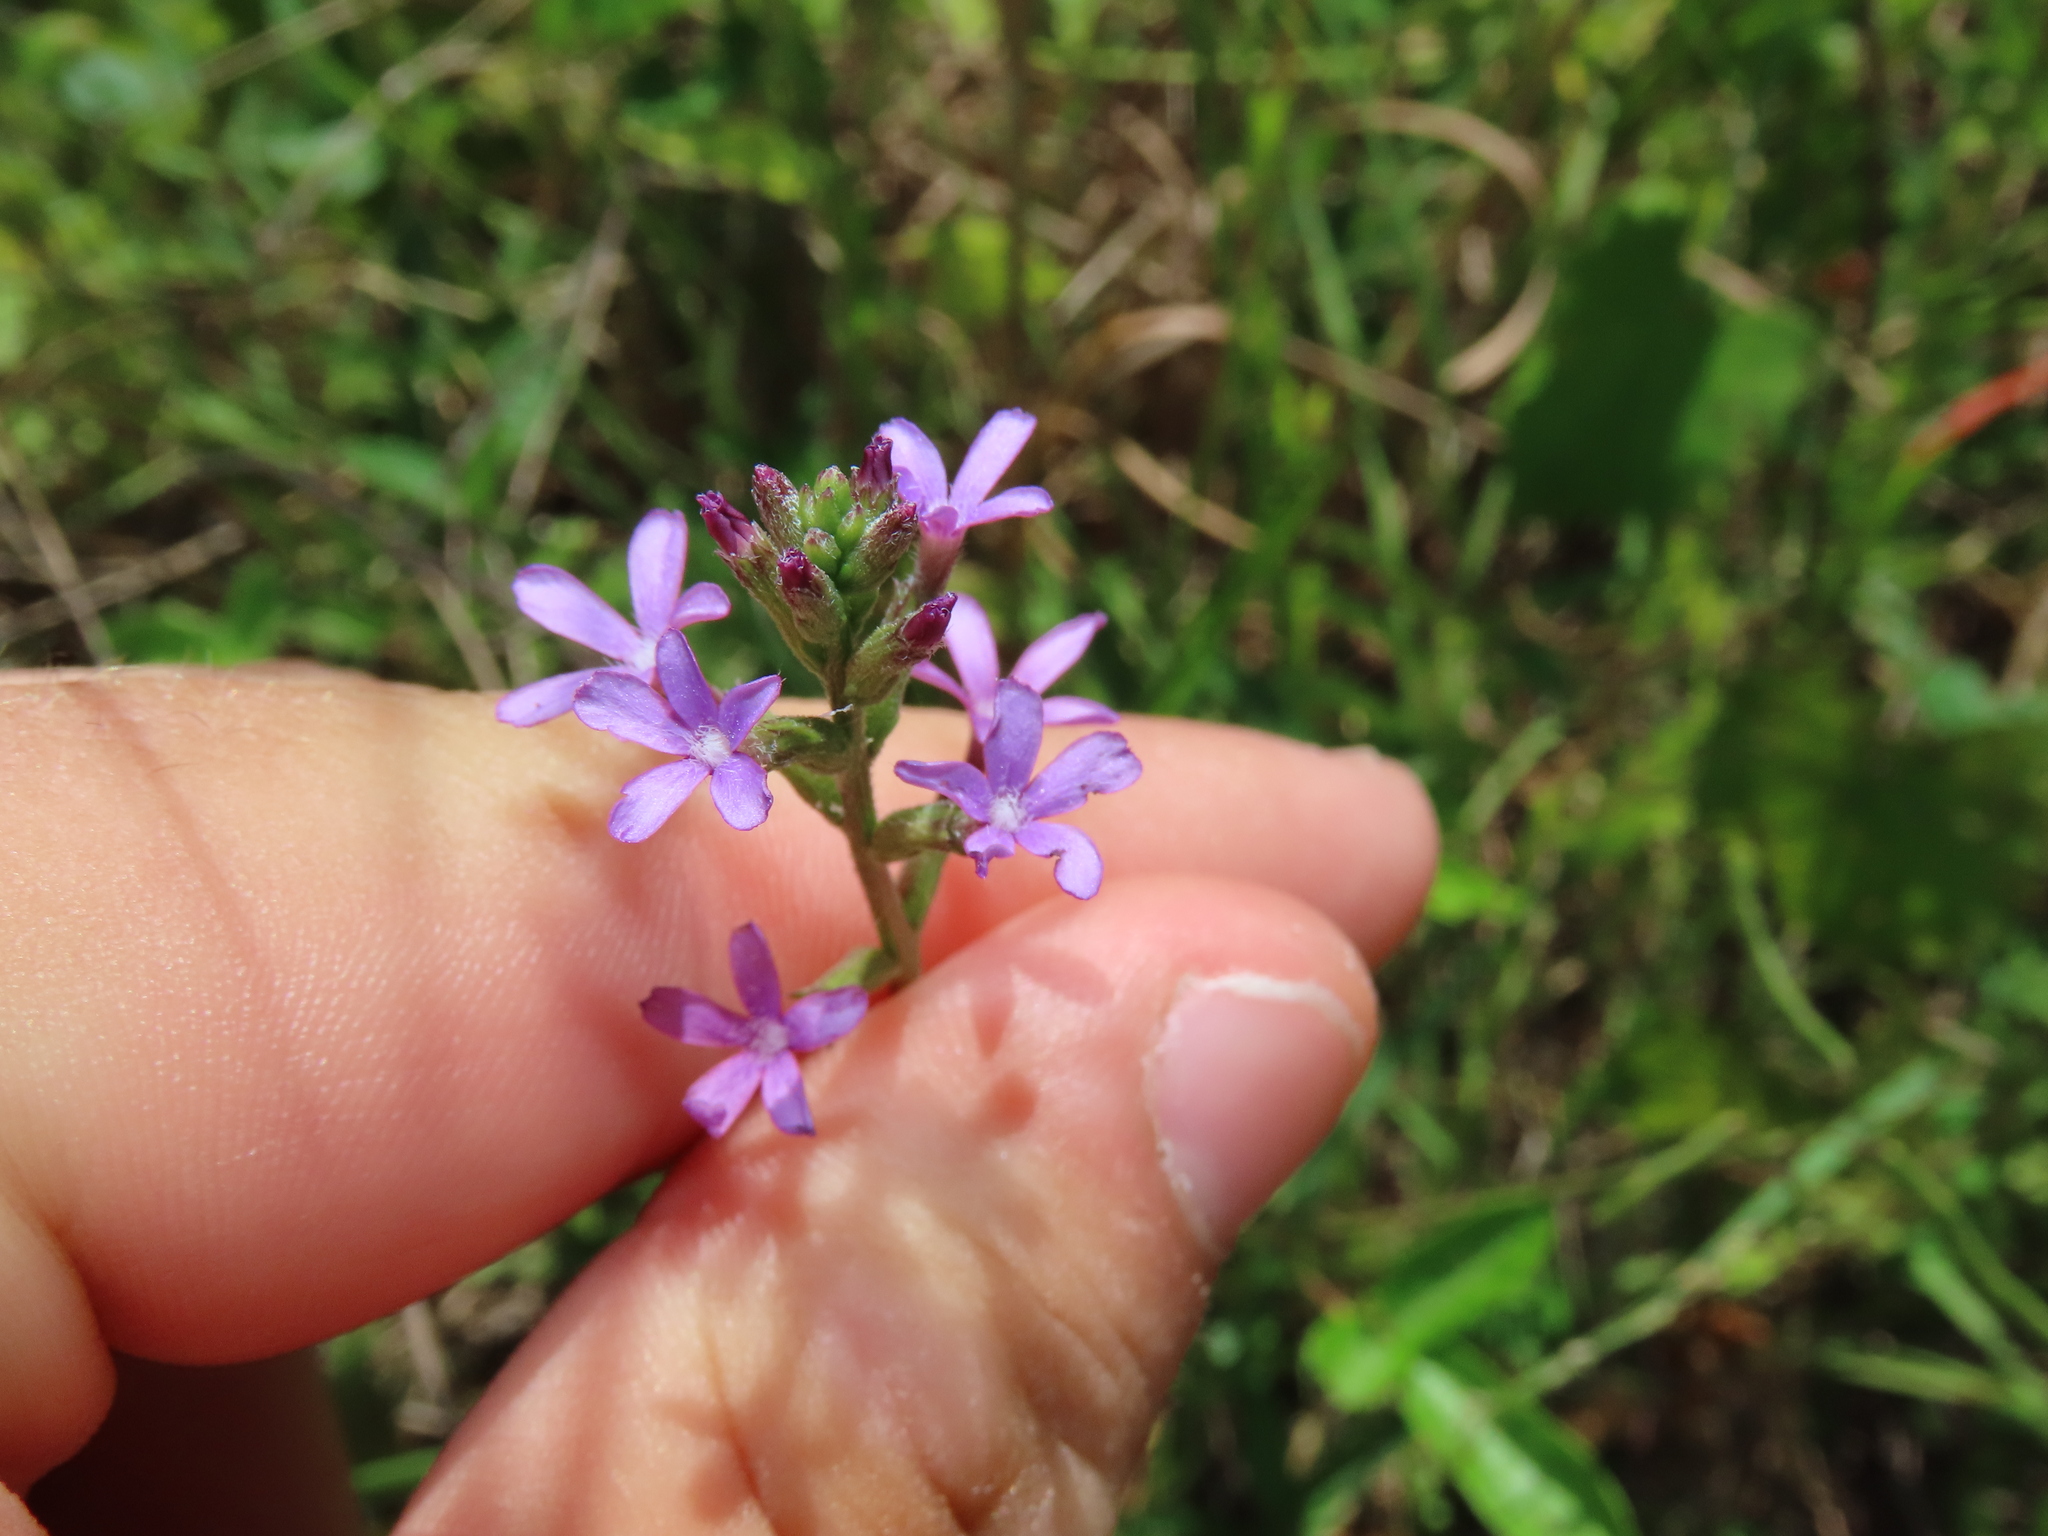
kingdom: Plantae
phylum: Tracheophyta
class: Magnoliopsida
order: Lamiales
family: Orobanchaceae
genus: Buchnera
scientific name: Buchnera floridana
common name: Florida bluehearts
